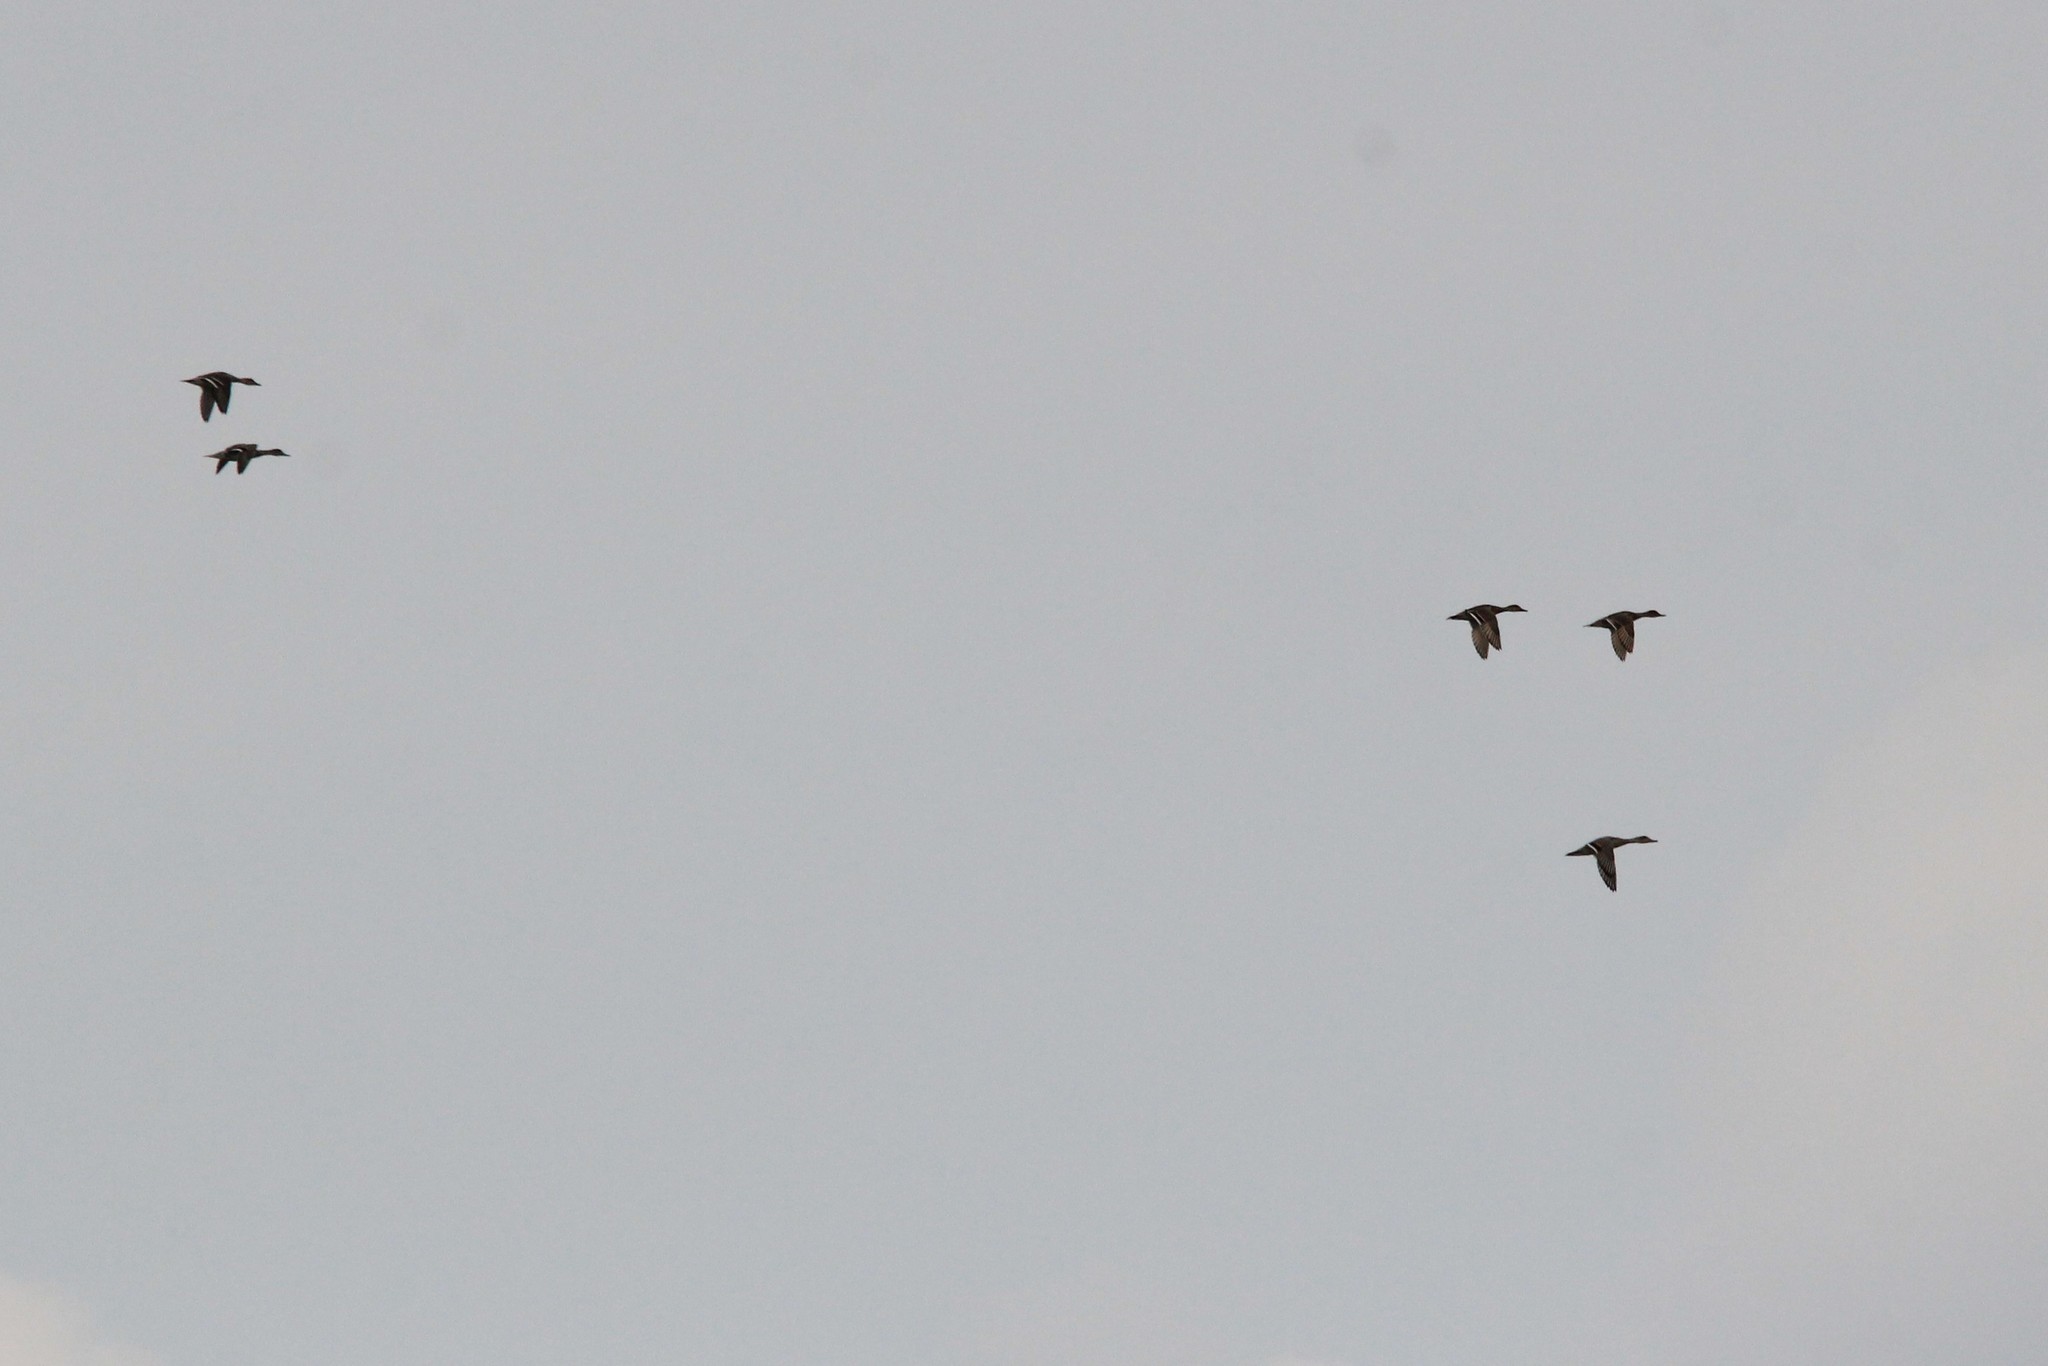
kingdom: Animalia
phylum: Chordata
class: Aves
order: Anseriformes
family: Anatidae
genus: Anas
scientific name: Anas acuta
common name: Northern pintail
